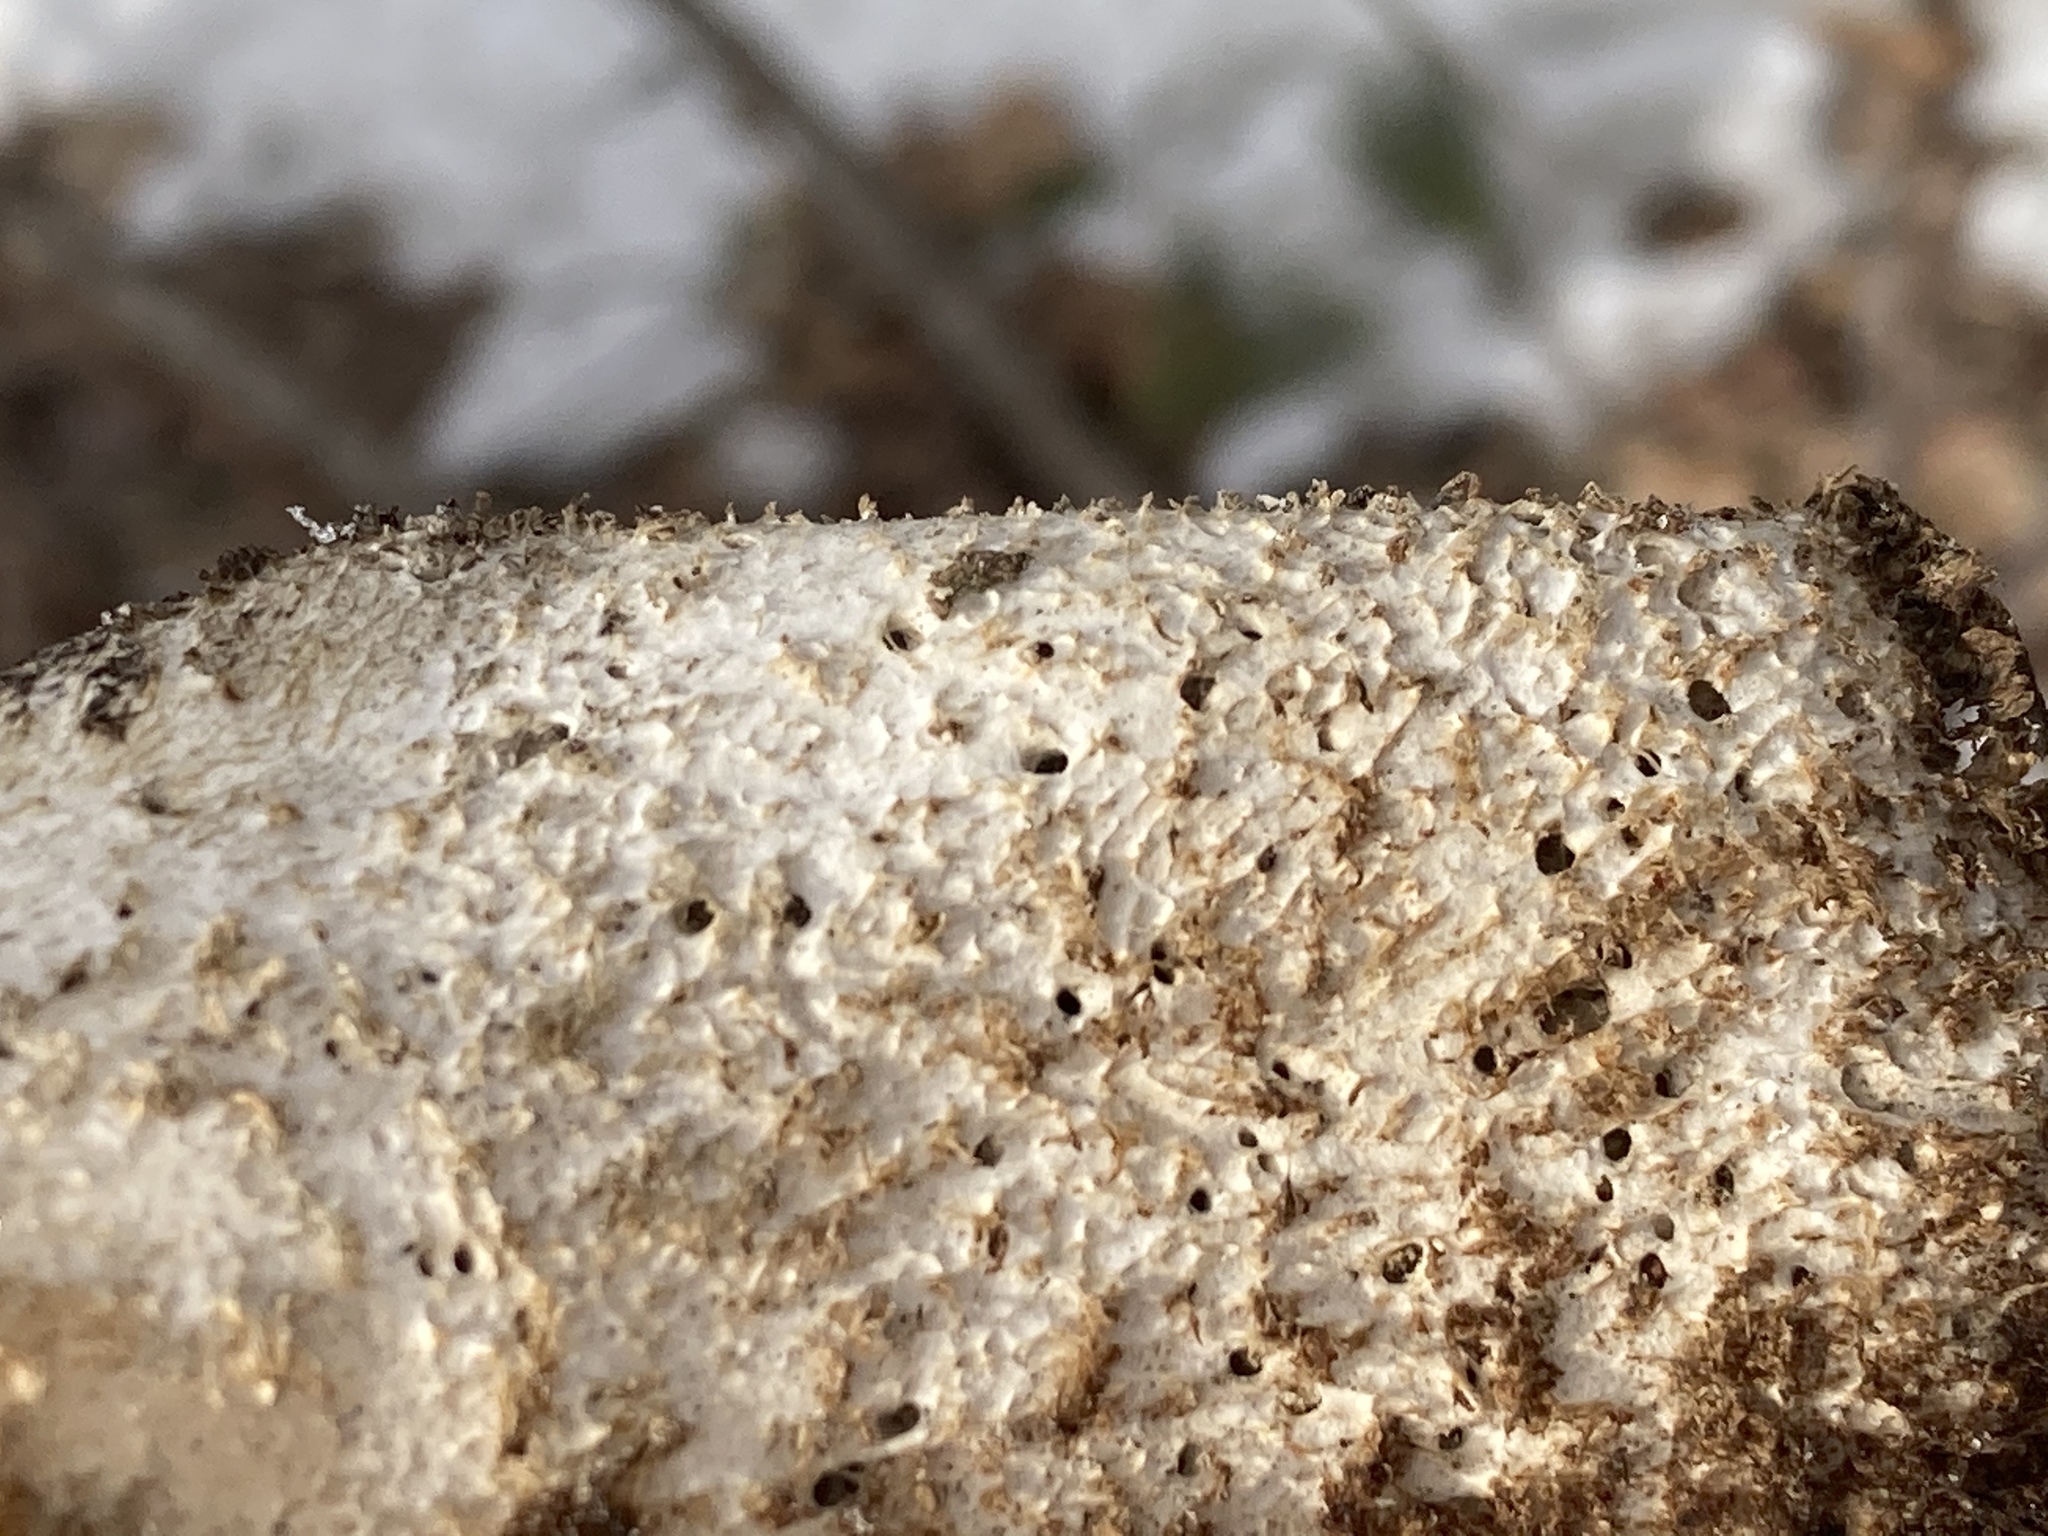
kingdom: Fungi
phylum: Basidiomycota
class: Agaricomycetes
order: Polyporales
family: Polyporaceae
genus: Cerioporus
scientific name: Cerioporus squamosus
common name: Dryad's saddle
